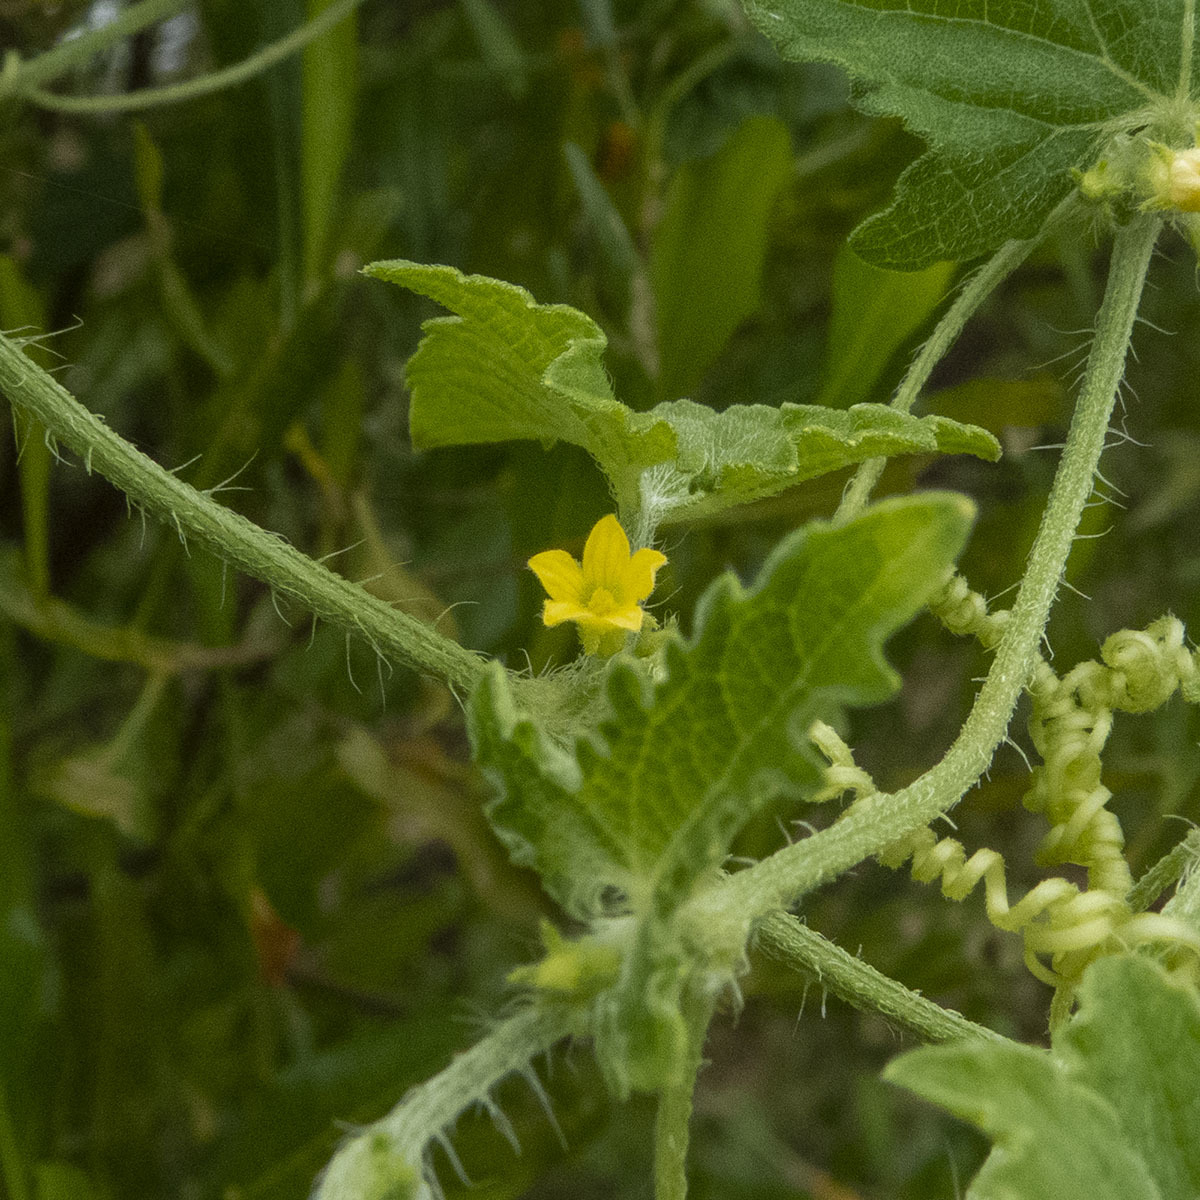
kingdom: Plantae
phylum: Tracheophyta
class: Magnoliopsida
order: Cucurbitales
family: Cucurbitaceae
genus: Cucumis
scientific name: Cucumis maderaspatanus
